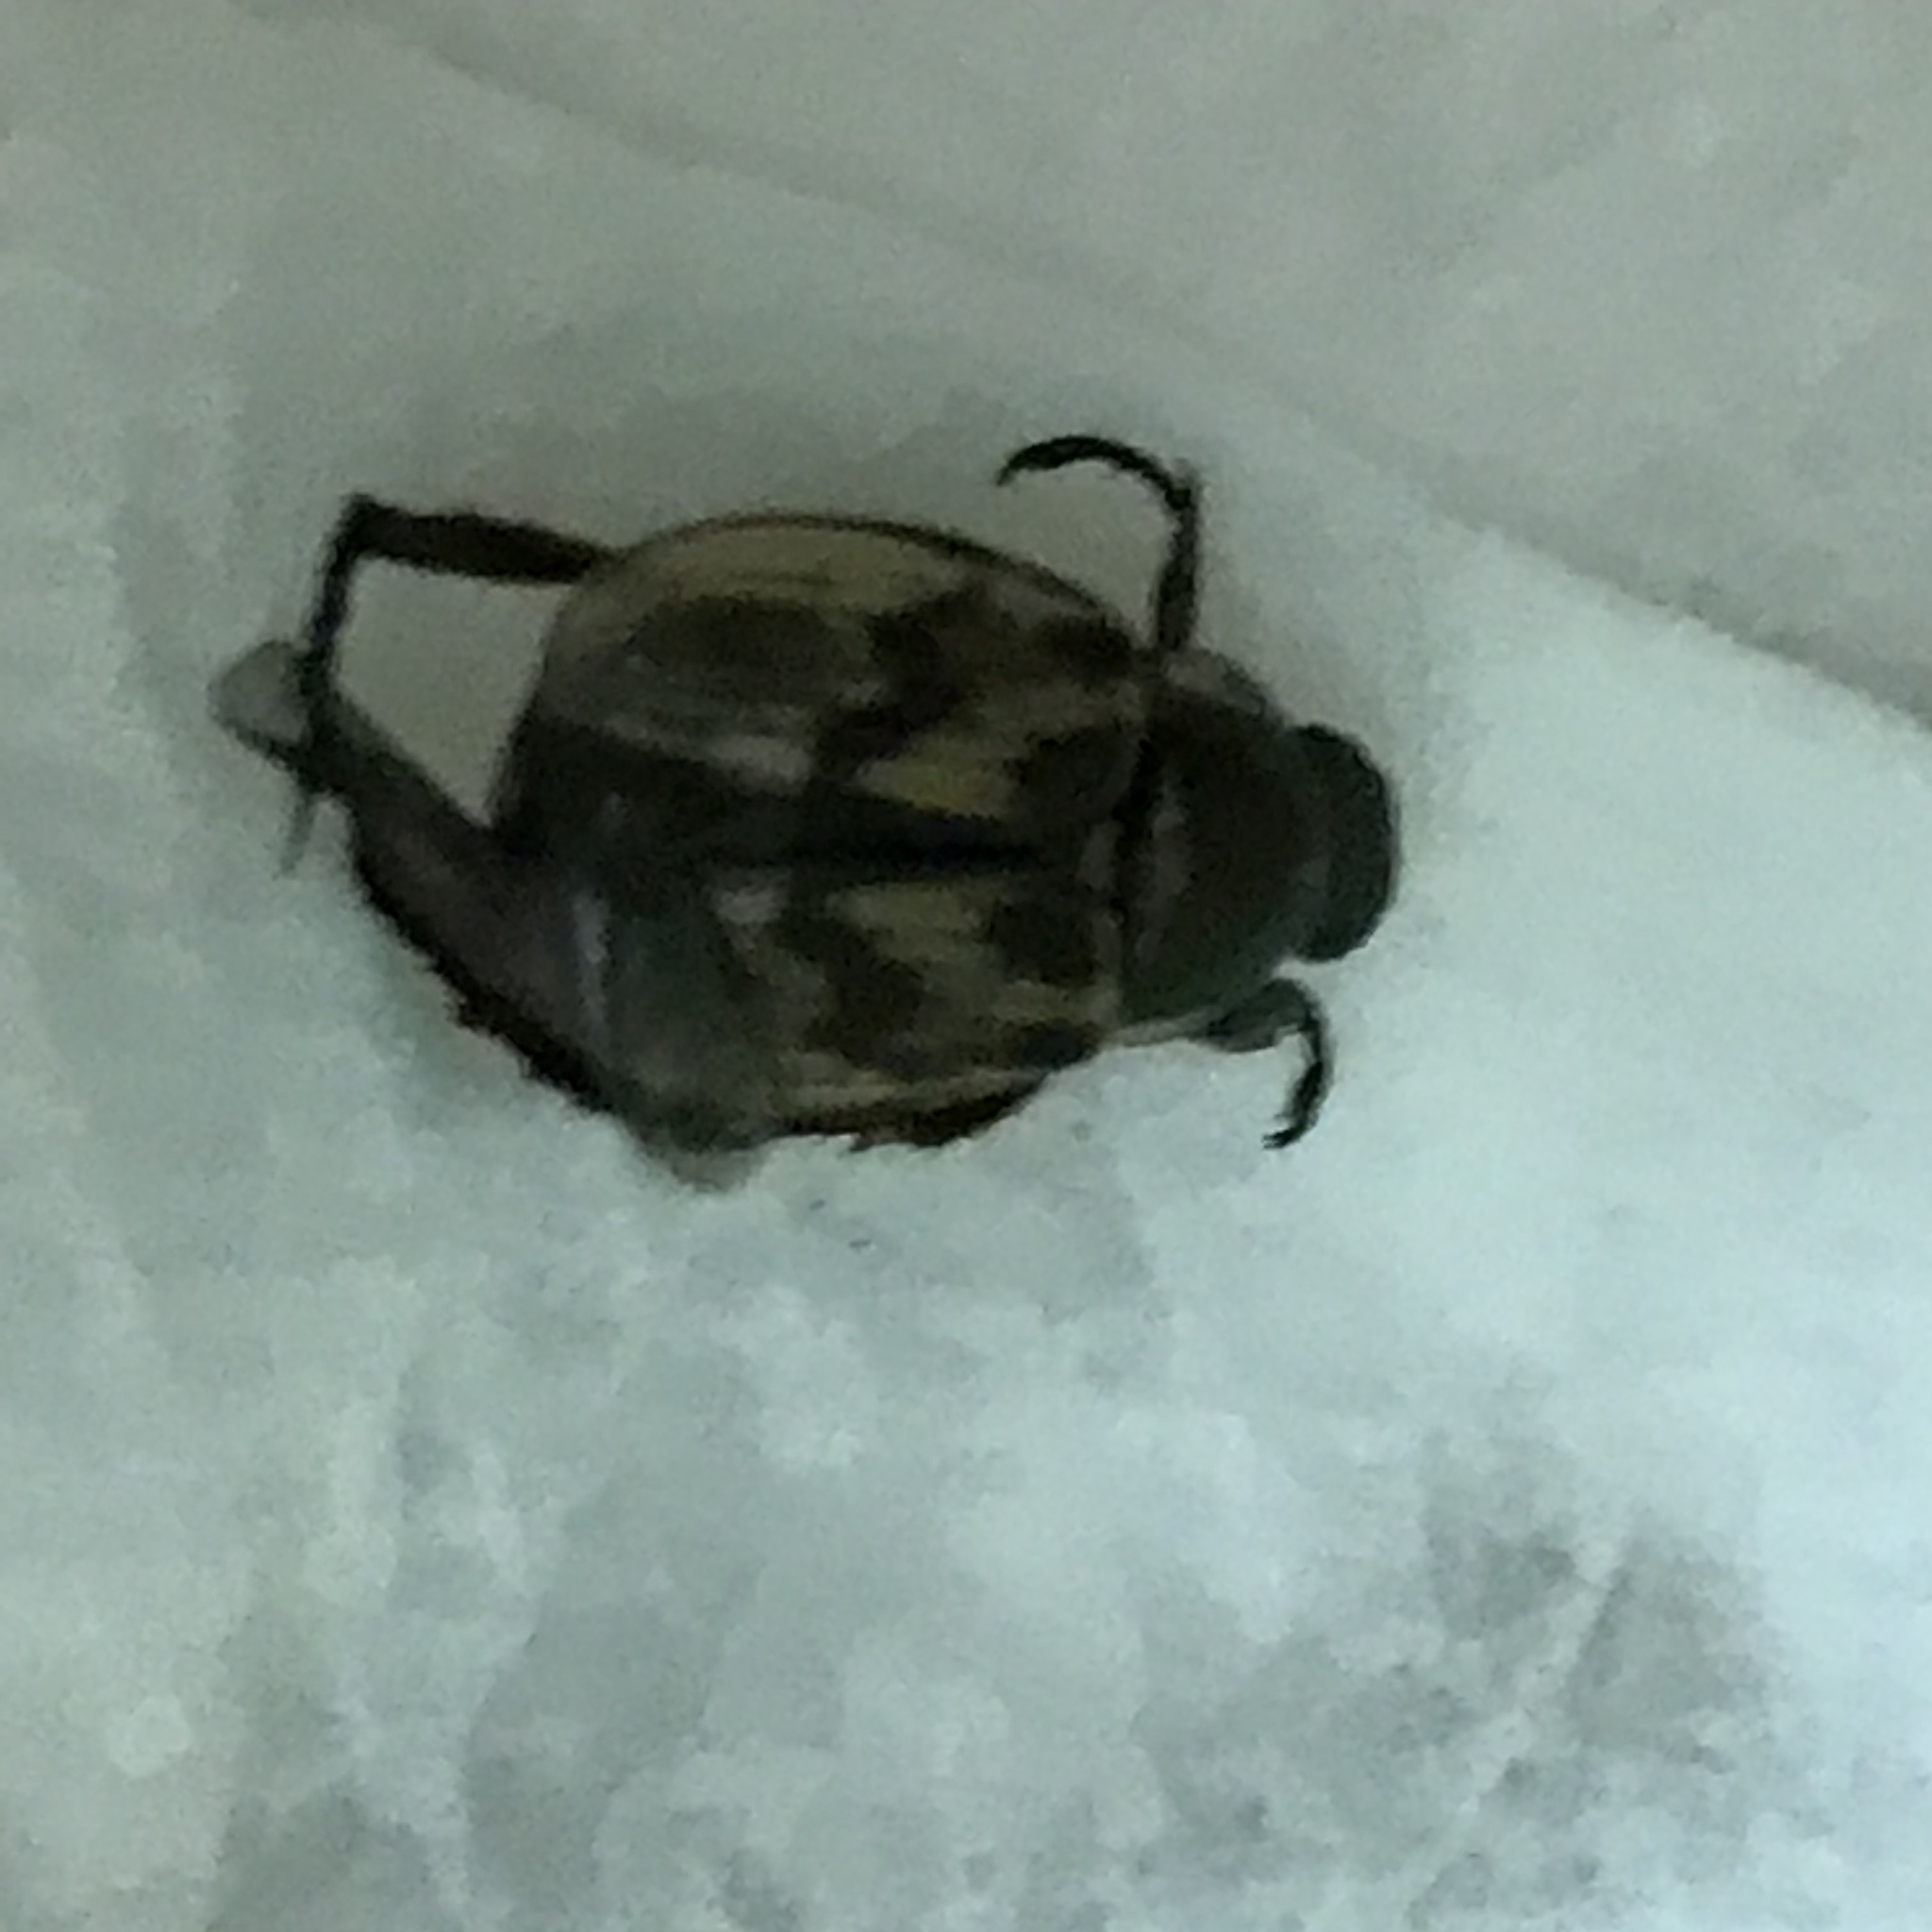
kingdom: Animalia
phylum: Arthropoda
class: Insecta
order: Coleoptera
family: Scarabaeidae
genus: Exomala
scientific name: Exomala orientalis
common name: Oriental beetle
